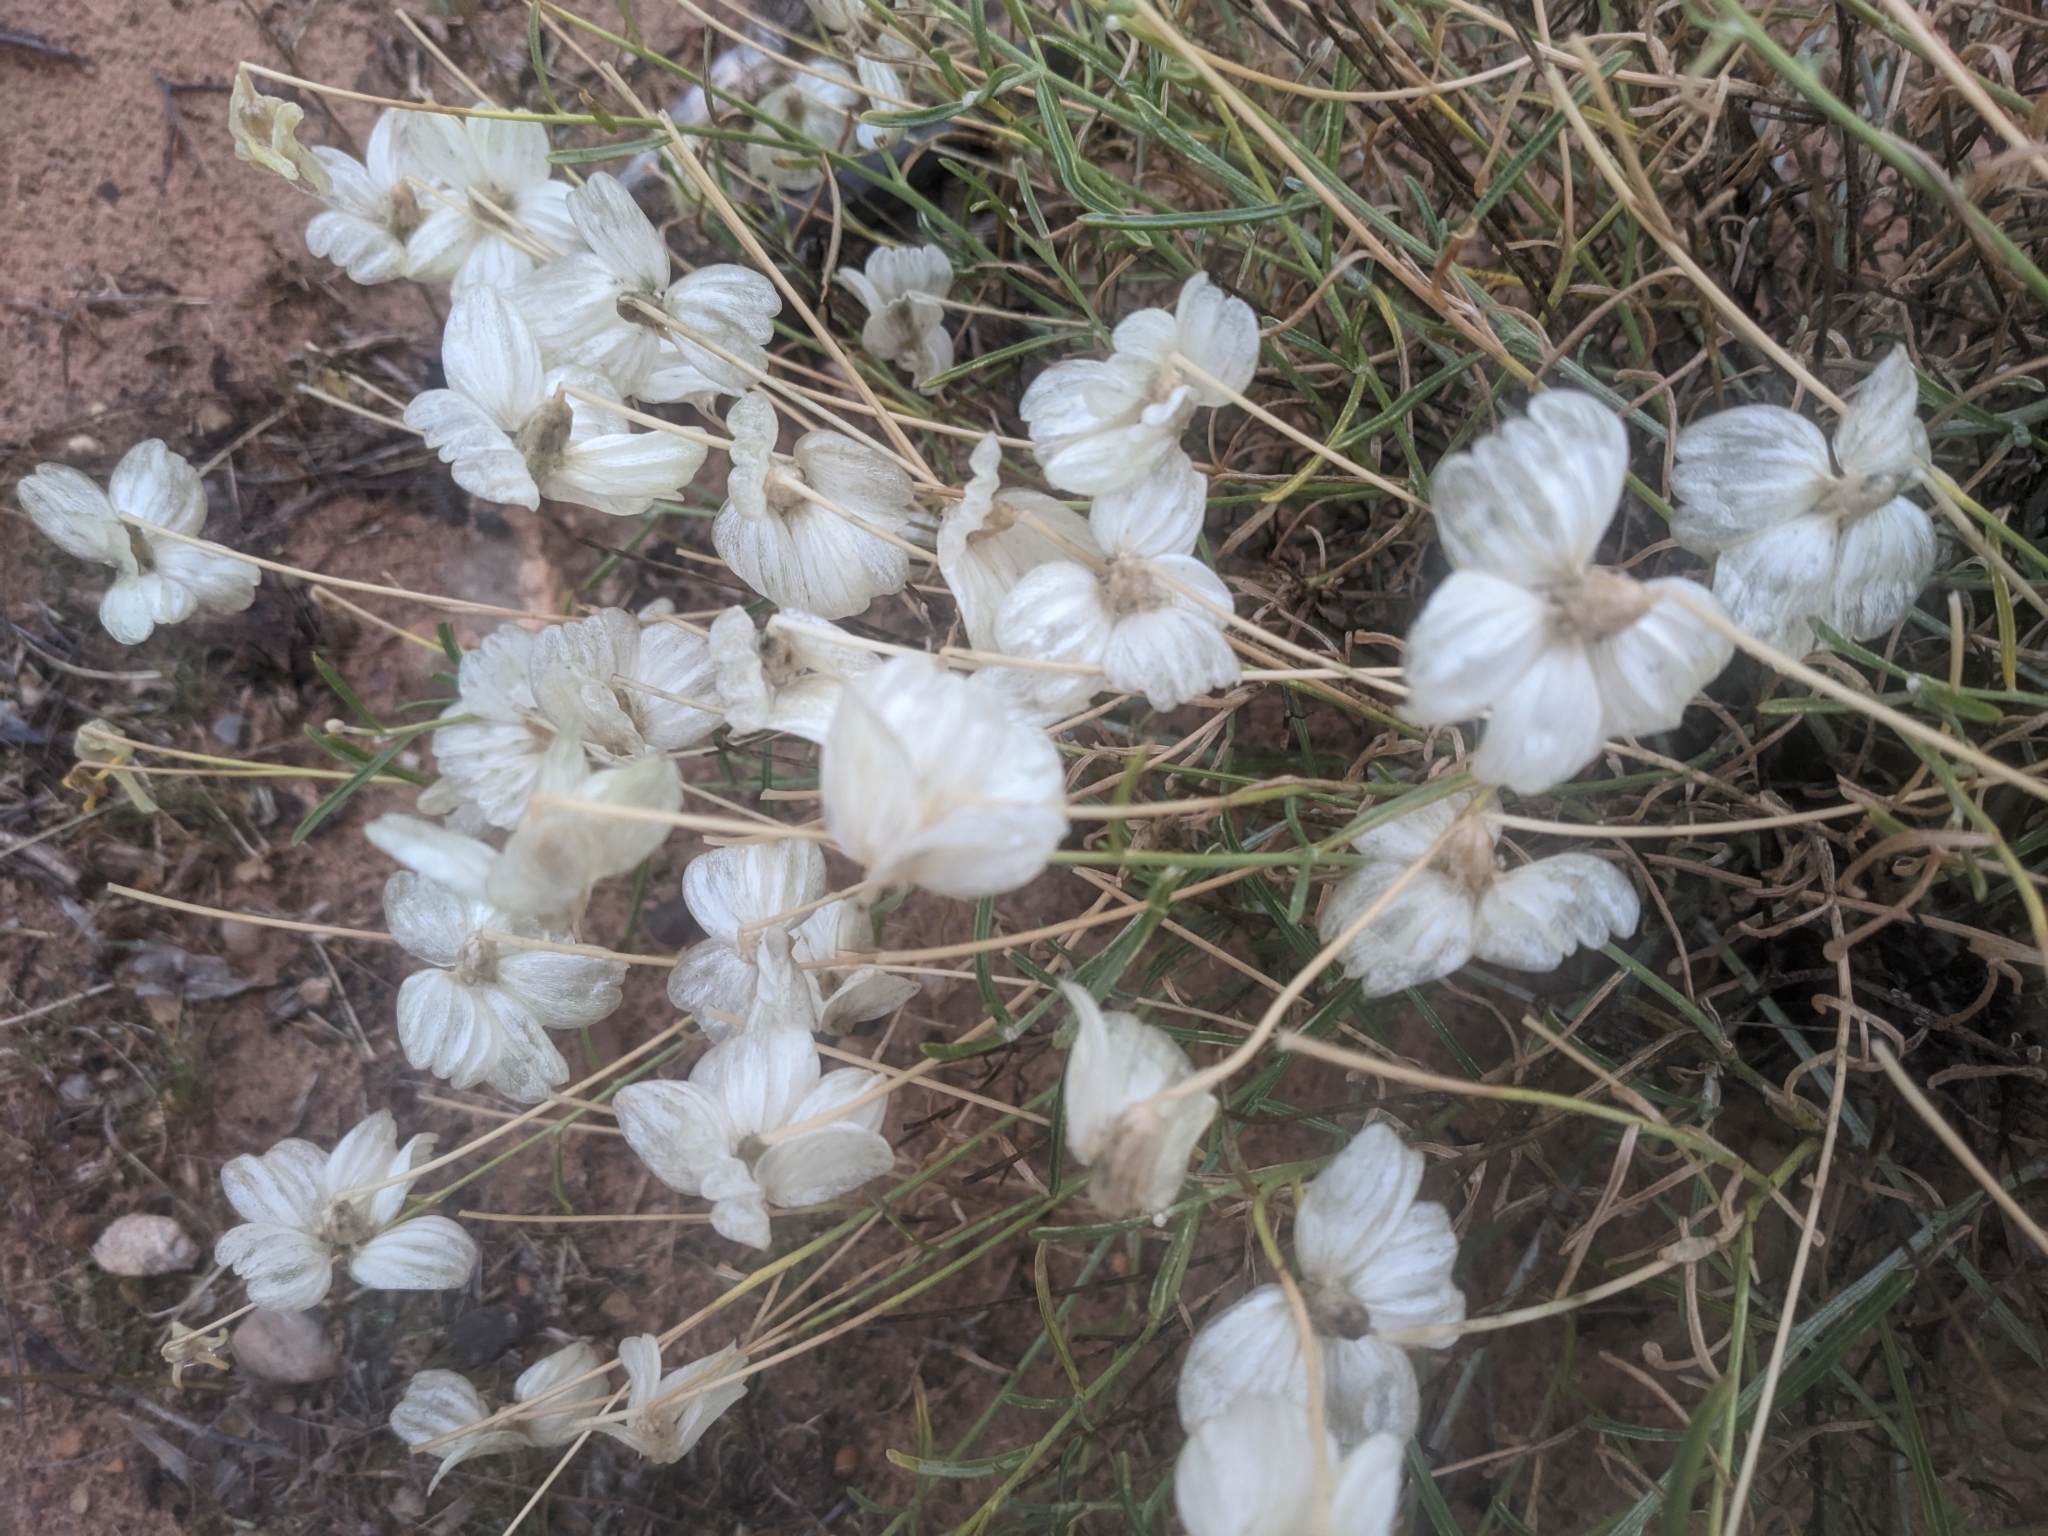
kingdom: Plantae
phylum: Tracheophyta
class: Magnoliopsida
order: Asterales
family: Asteraceae
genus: Psilostrophe
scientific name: Psilostrophe cooperi
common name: White-stem paper-flower
